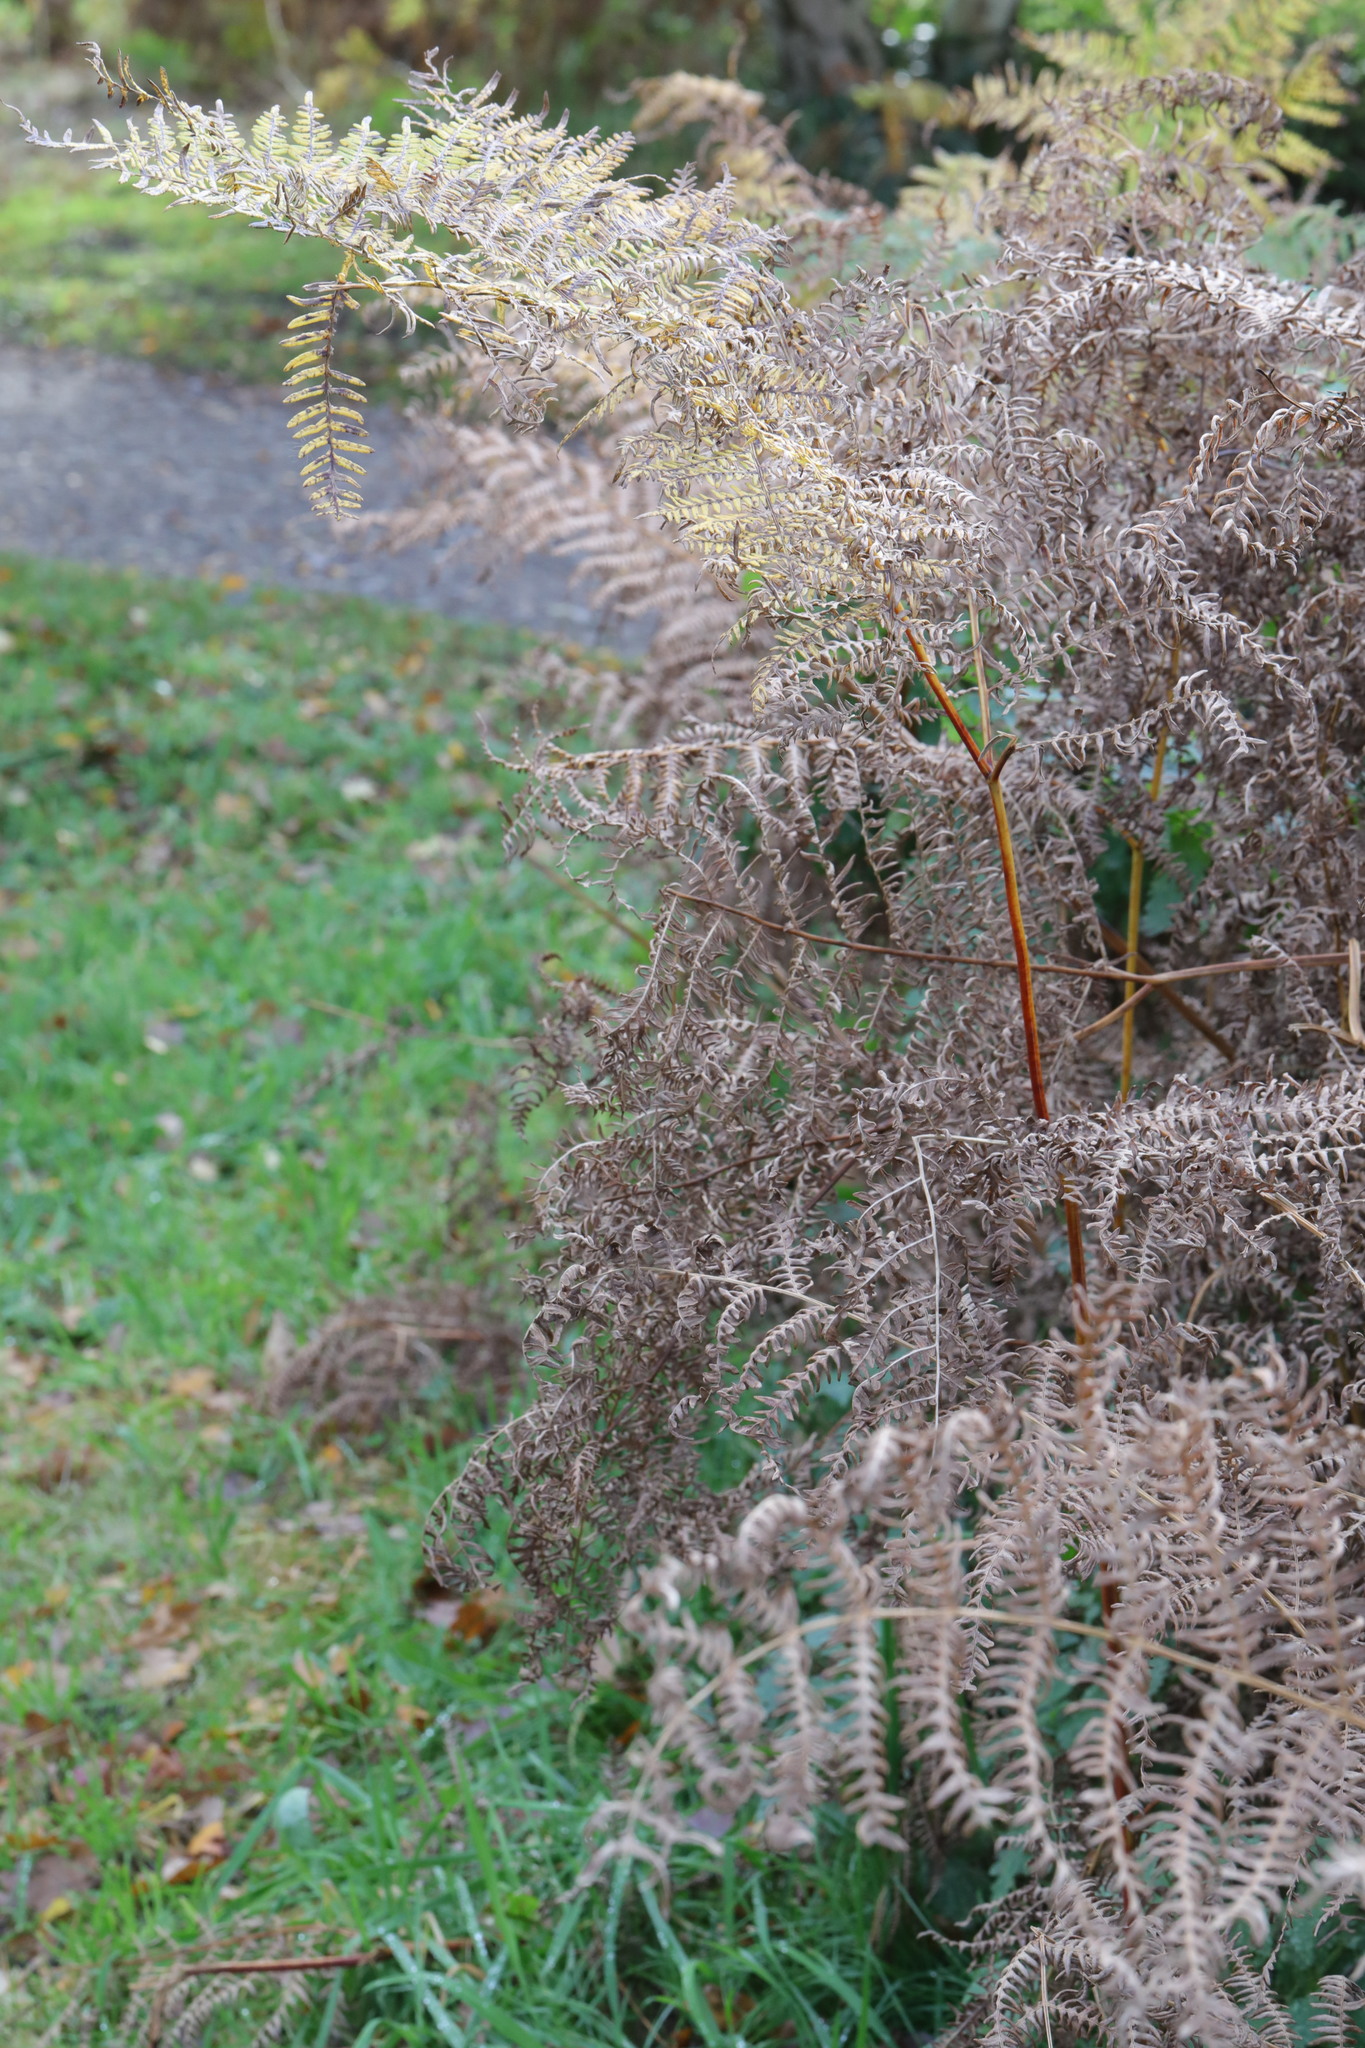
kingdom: Plantae
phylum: Tracheophyta
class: Polypodiopsida
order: Polypodiales
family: Dennstaedtiaceae
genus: Pteridium
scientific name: Pteridium aquilinum
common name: Bracken
